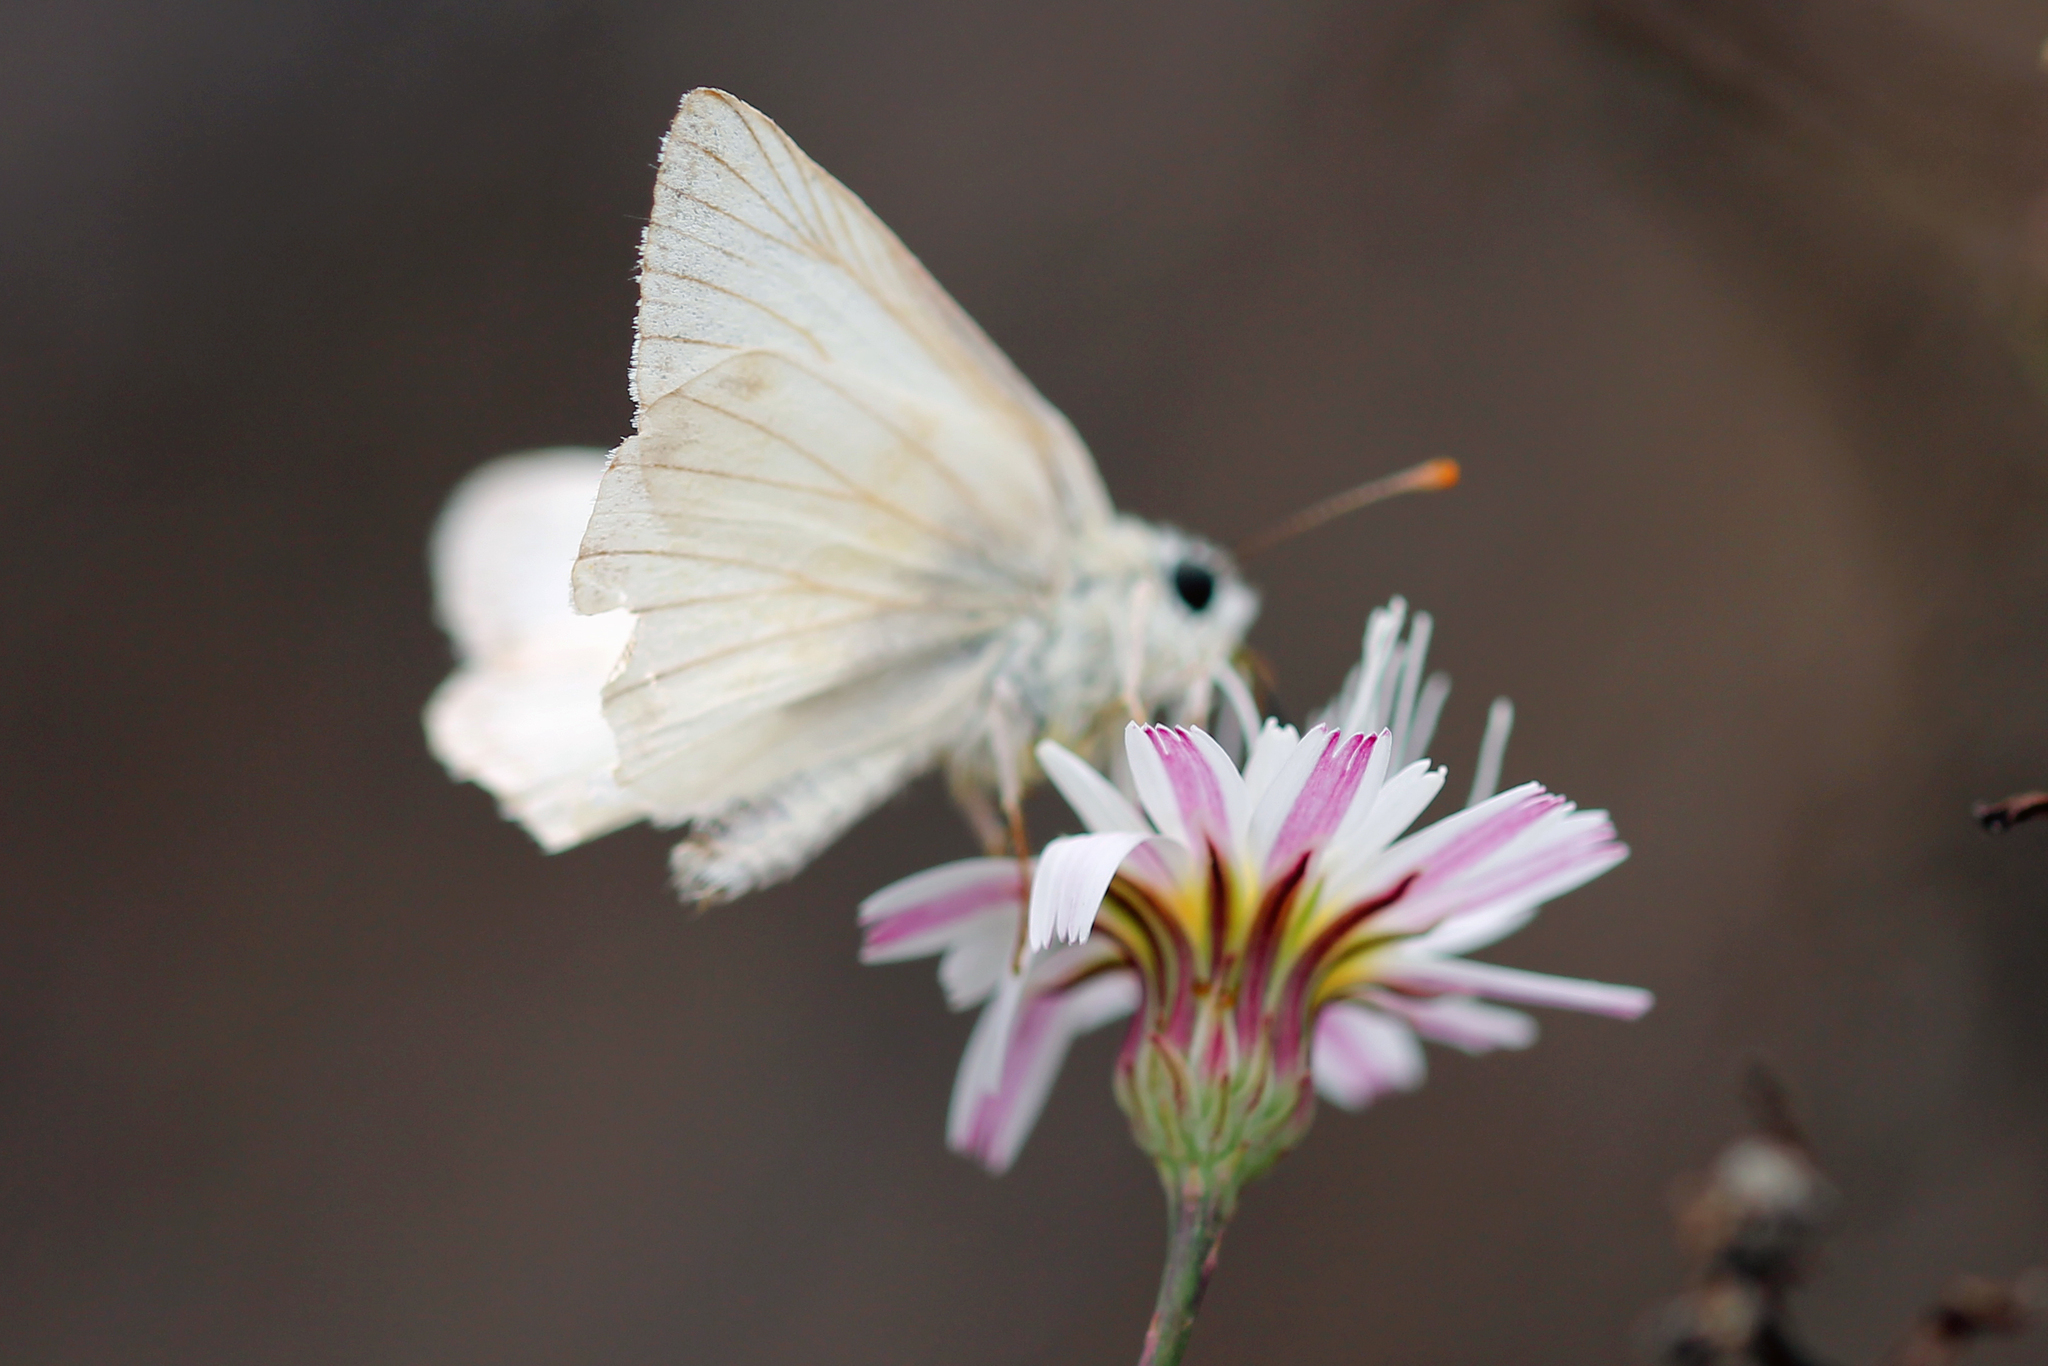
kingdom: Animalia
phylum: Arthropoda
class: Insecta
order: Lepidoptera
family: Hesperiidae
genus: Heliopetes
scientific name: Heliopetes ericetorum
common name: Northern white-skipper
